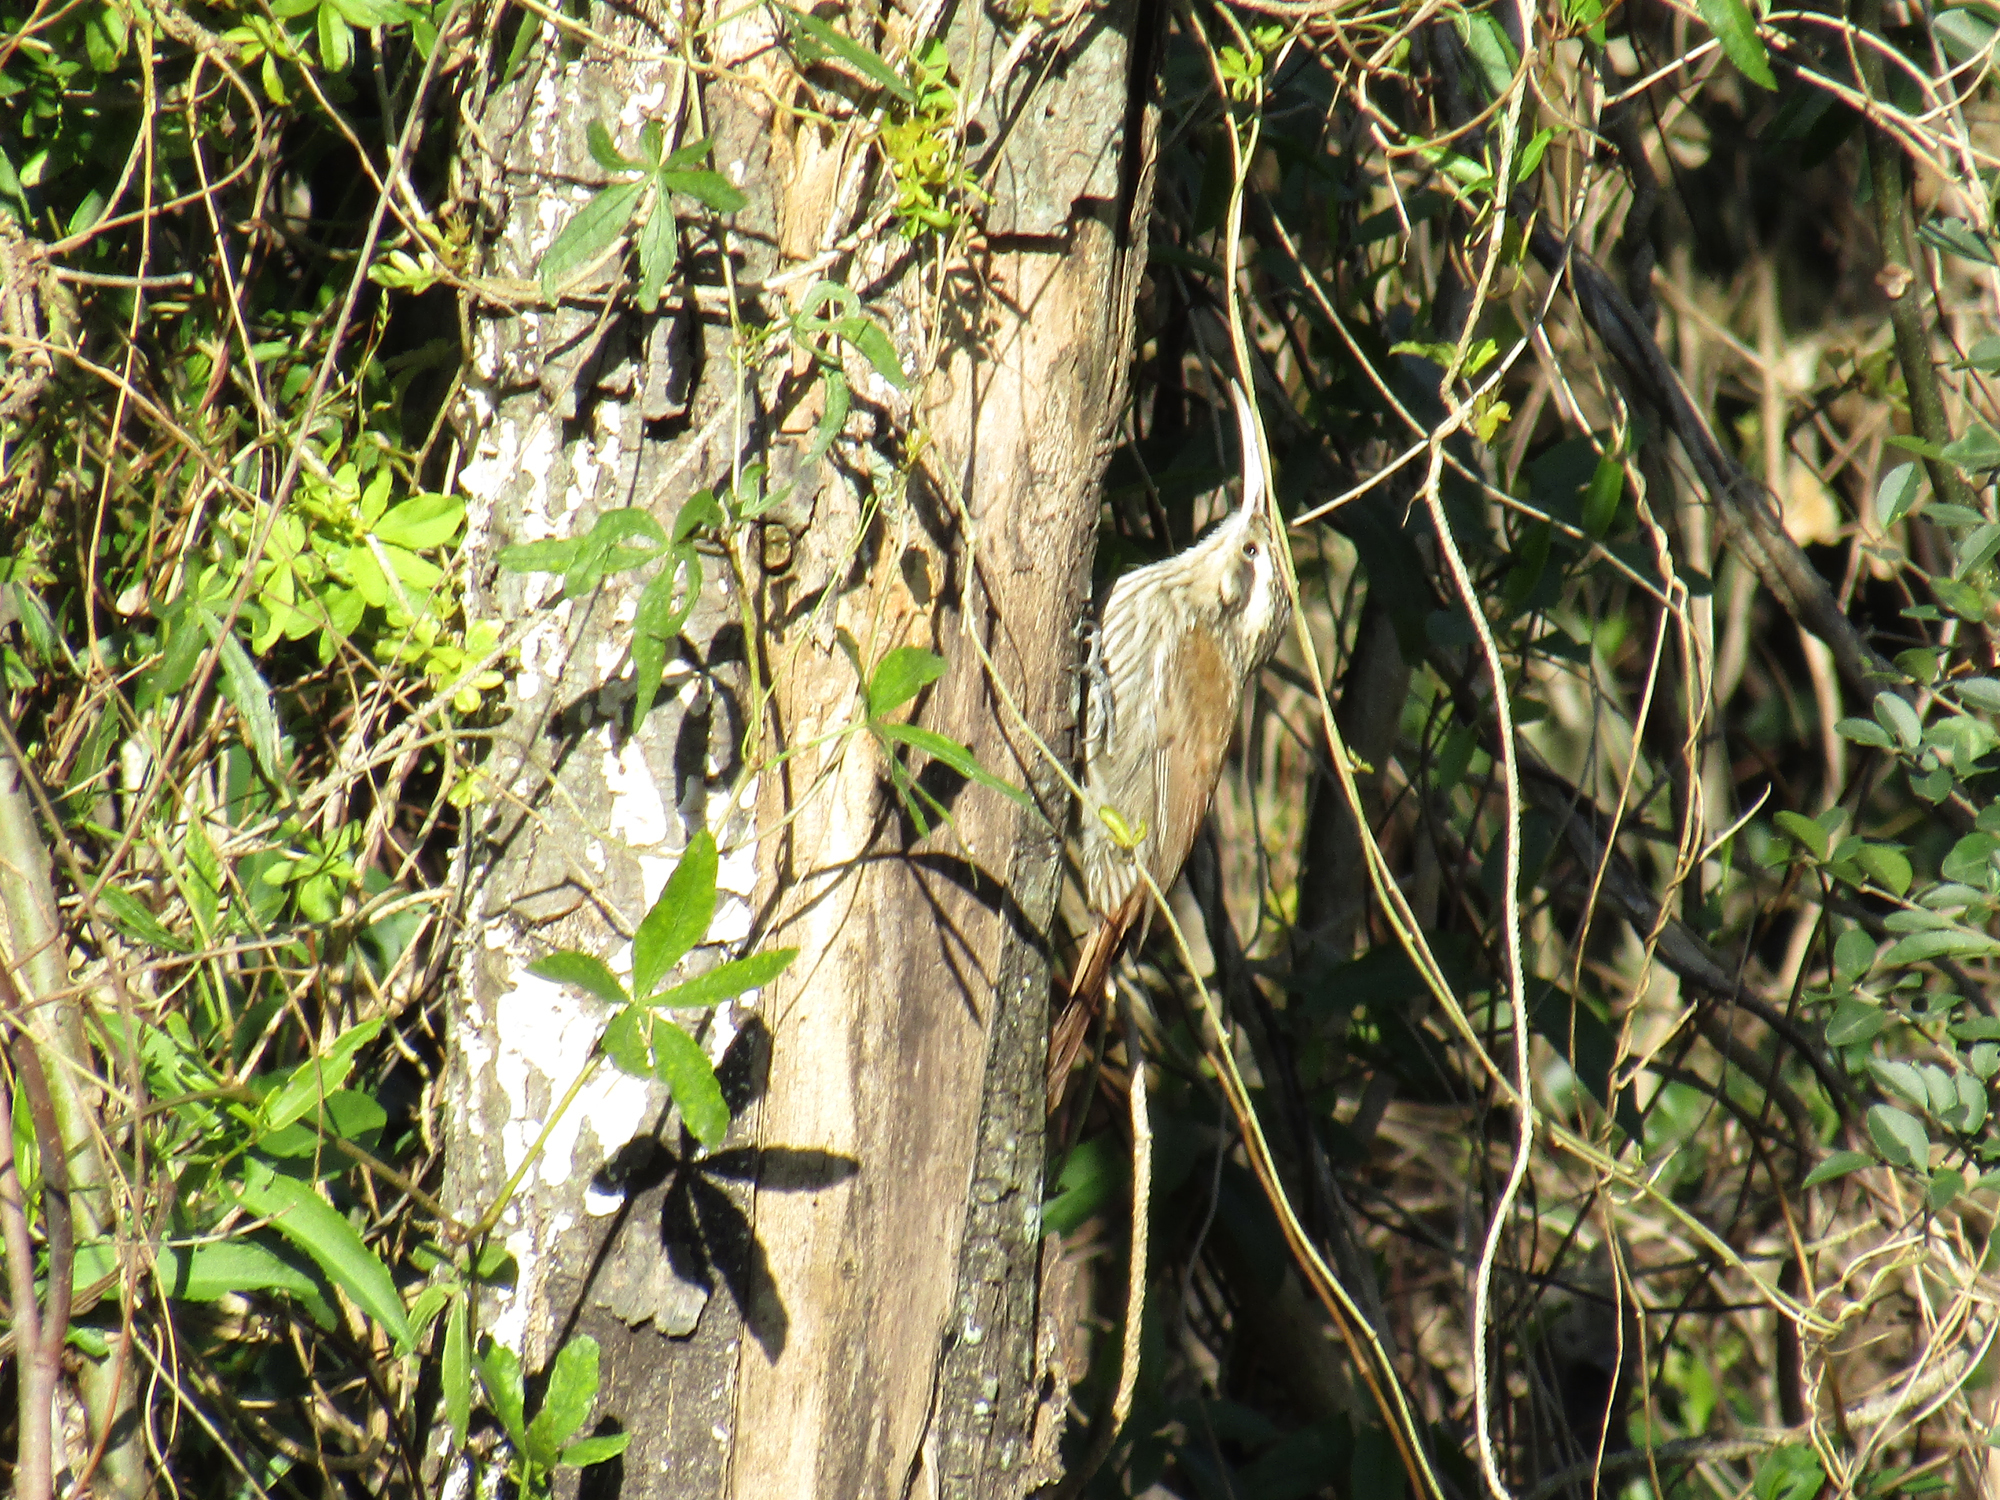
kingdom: Animalia
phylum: Chordata
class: Aves
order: Passeriformes
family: Furnariidae
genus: Lepidocolaptes
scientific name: Lepidocolaptes angustirostris
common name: Narrow-billed woodcreeper
